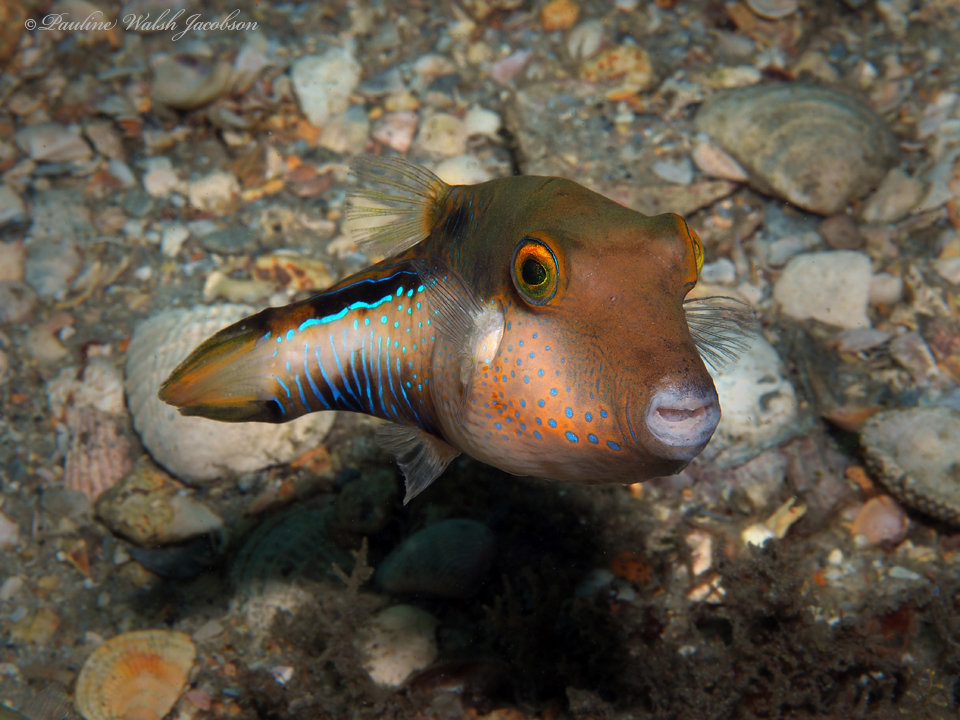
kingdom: Animalia
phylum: Chordata
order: Tetraodontiformes
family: Tetraodontidae
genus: Canthigaster
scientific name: Canthigaster rostrata
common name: Caribbean sharpnose-puffer
